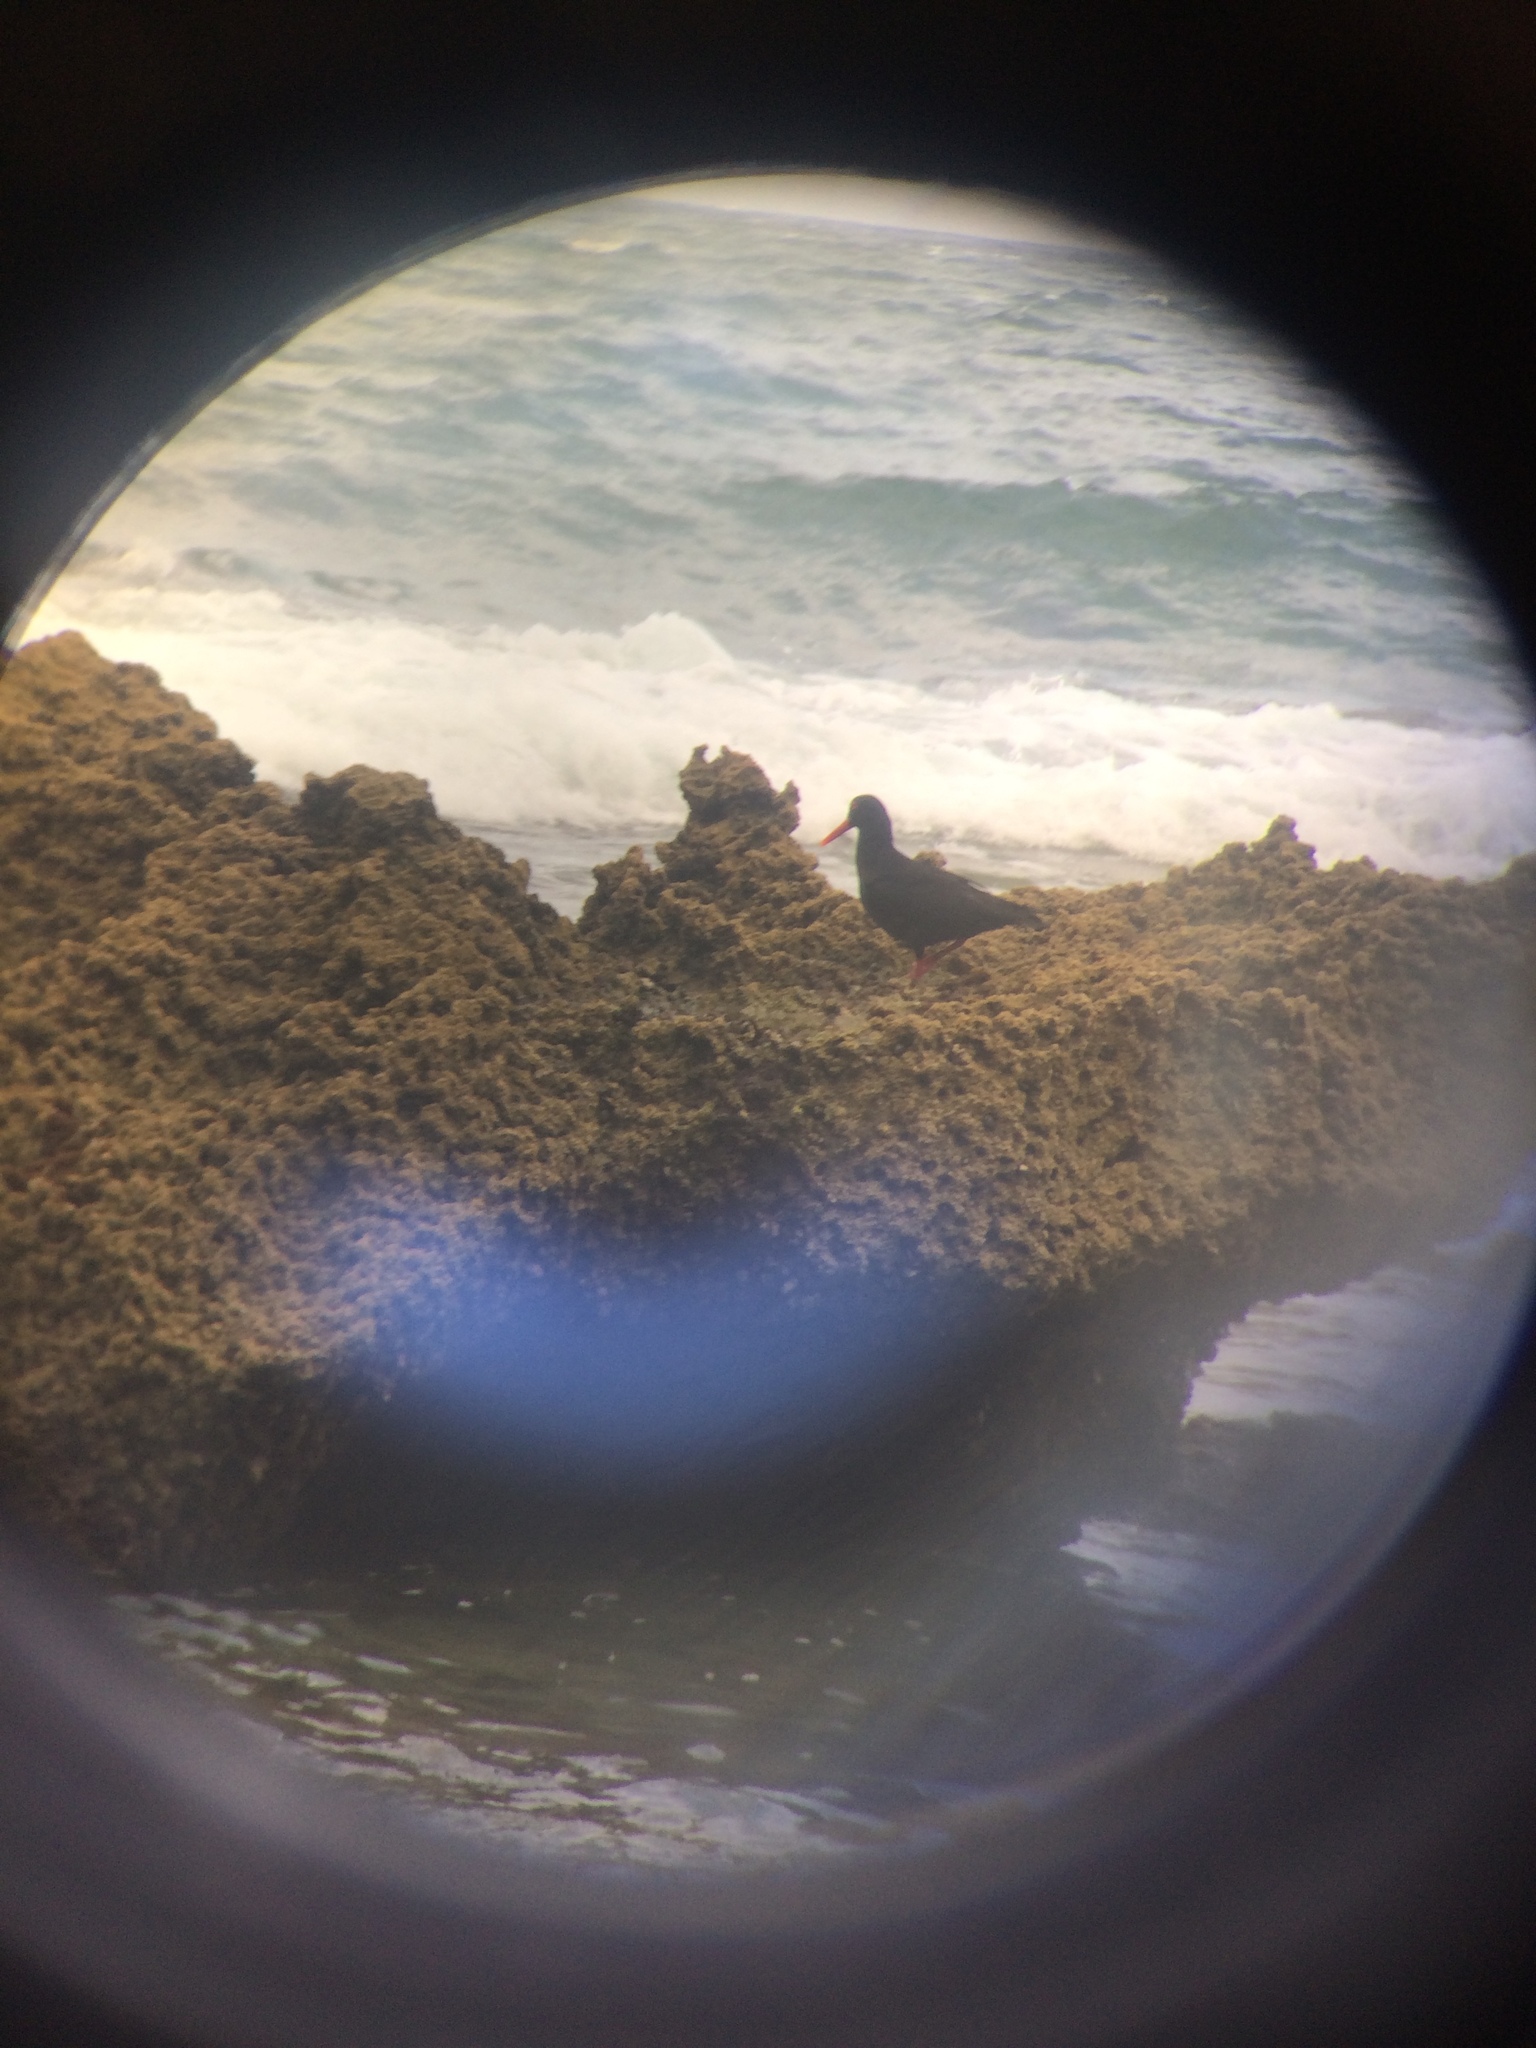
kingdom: Animalia
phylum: Chordata
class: Aves
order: Charadriiformes
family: Haematopodidae
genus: Haematopus
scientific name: Haematopus moquini
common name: African oystercatcher
